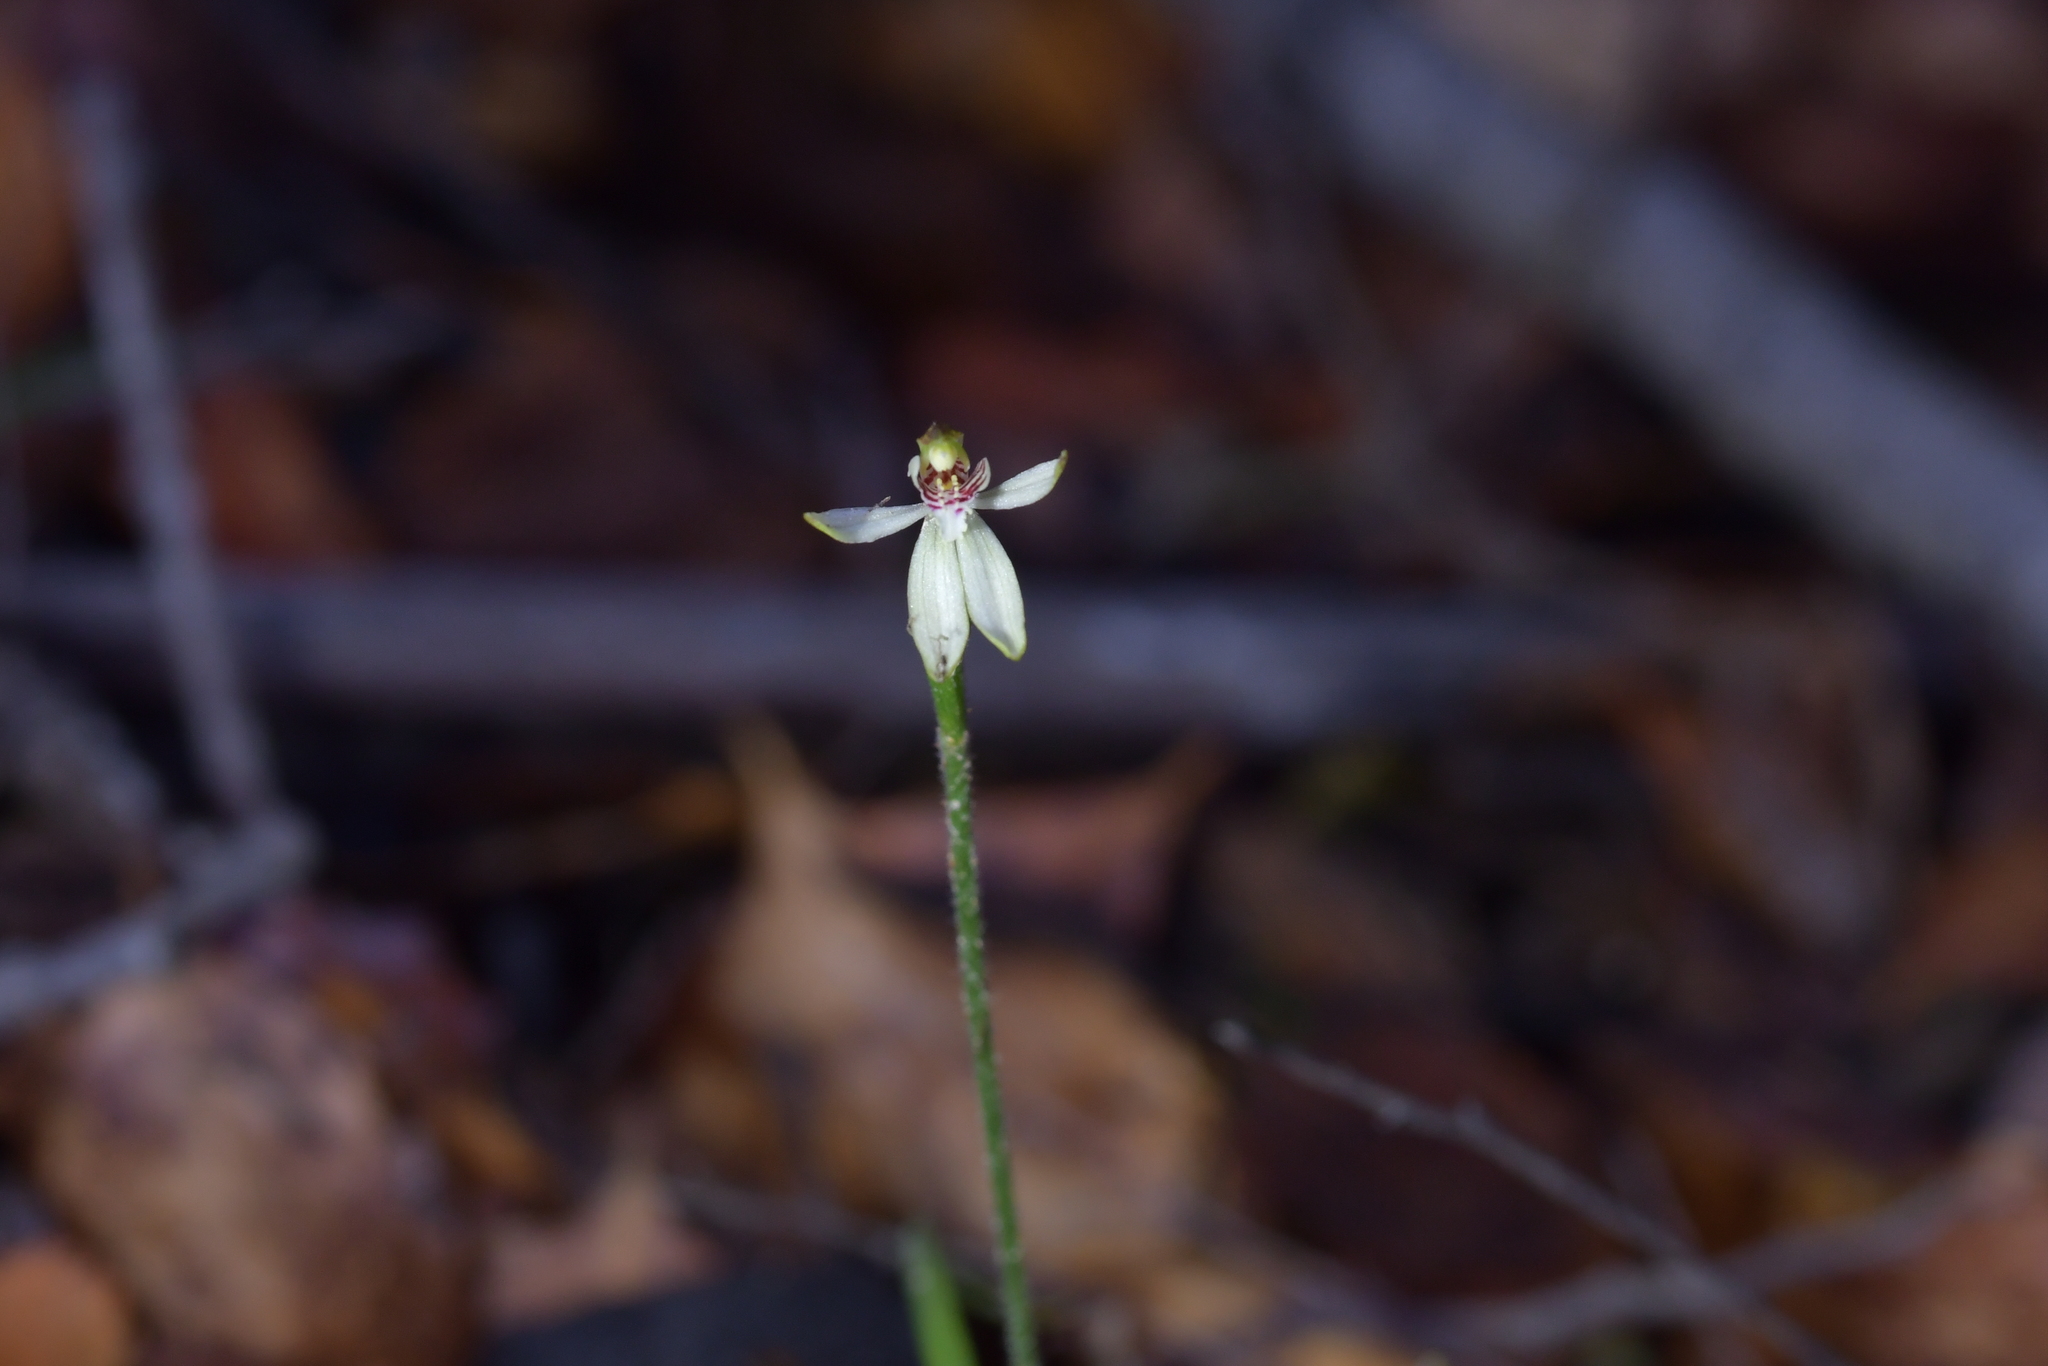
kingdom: Plantae
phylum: Tracheophyta
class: Liliopsida
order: Asparagales
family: Orchidaceae
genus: Caladenia
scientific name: Caladenia chlorostyla
